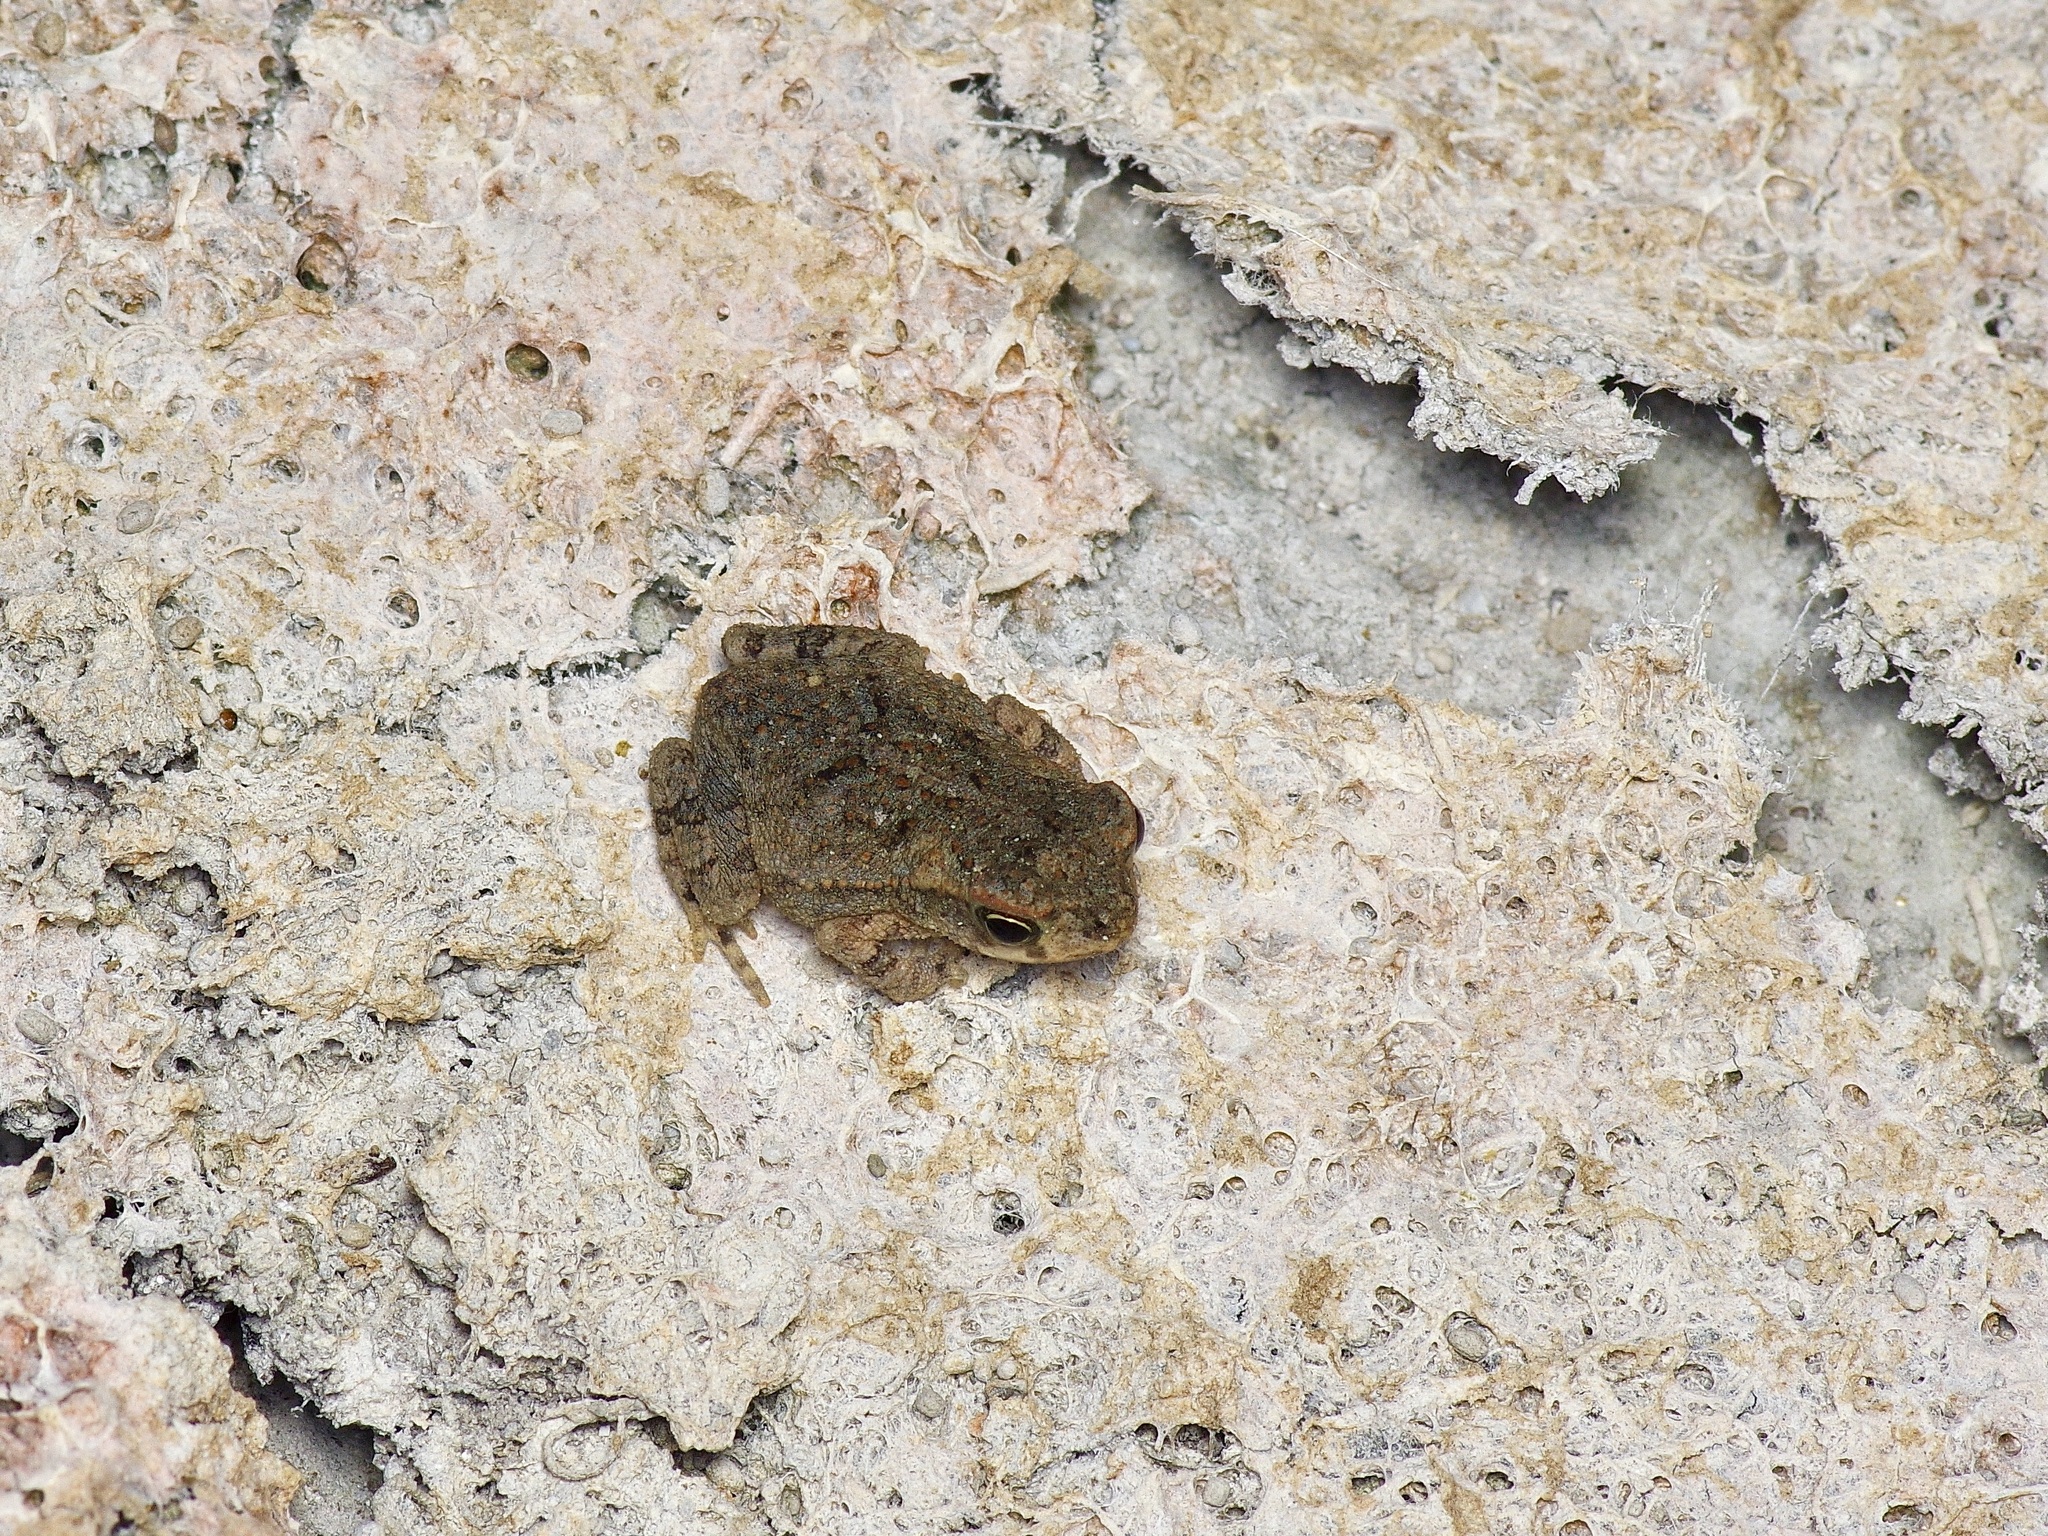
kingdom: Animalia
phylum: Chordata
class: Amphibia
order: Anura
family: Bufonidae
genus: Incilius
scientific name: Incilius nebulifer
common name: Gulf coast toad
